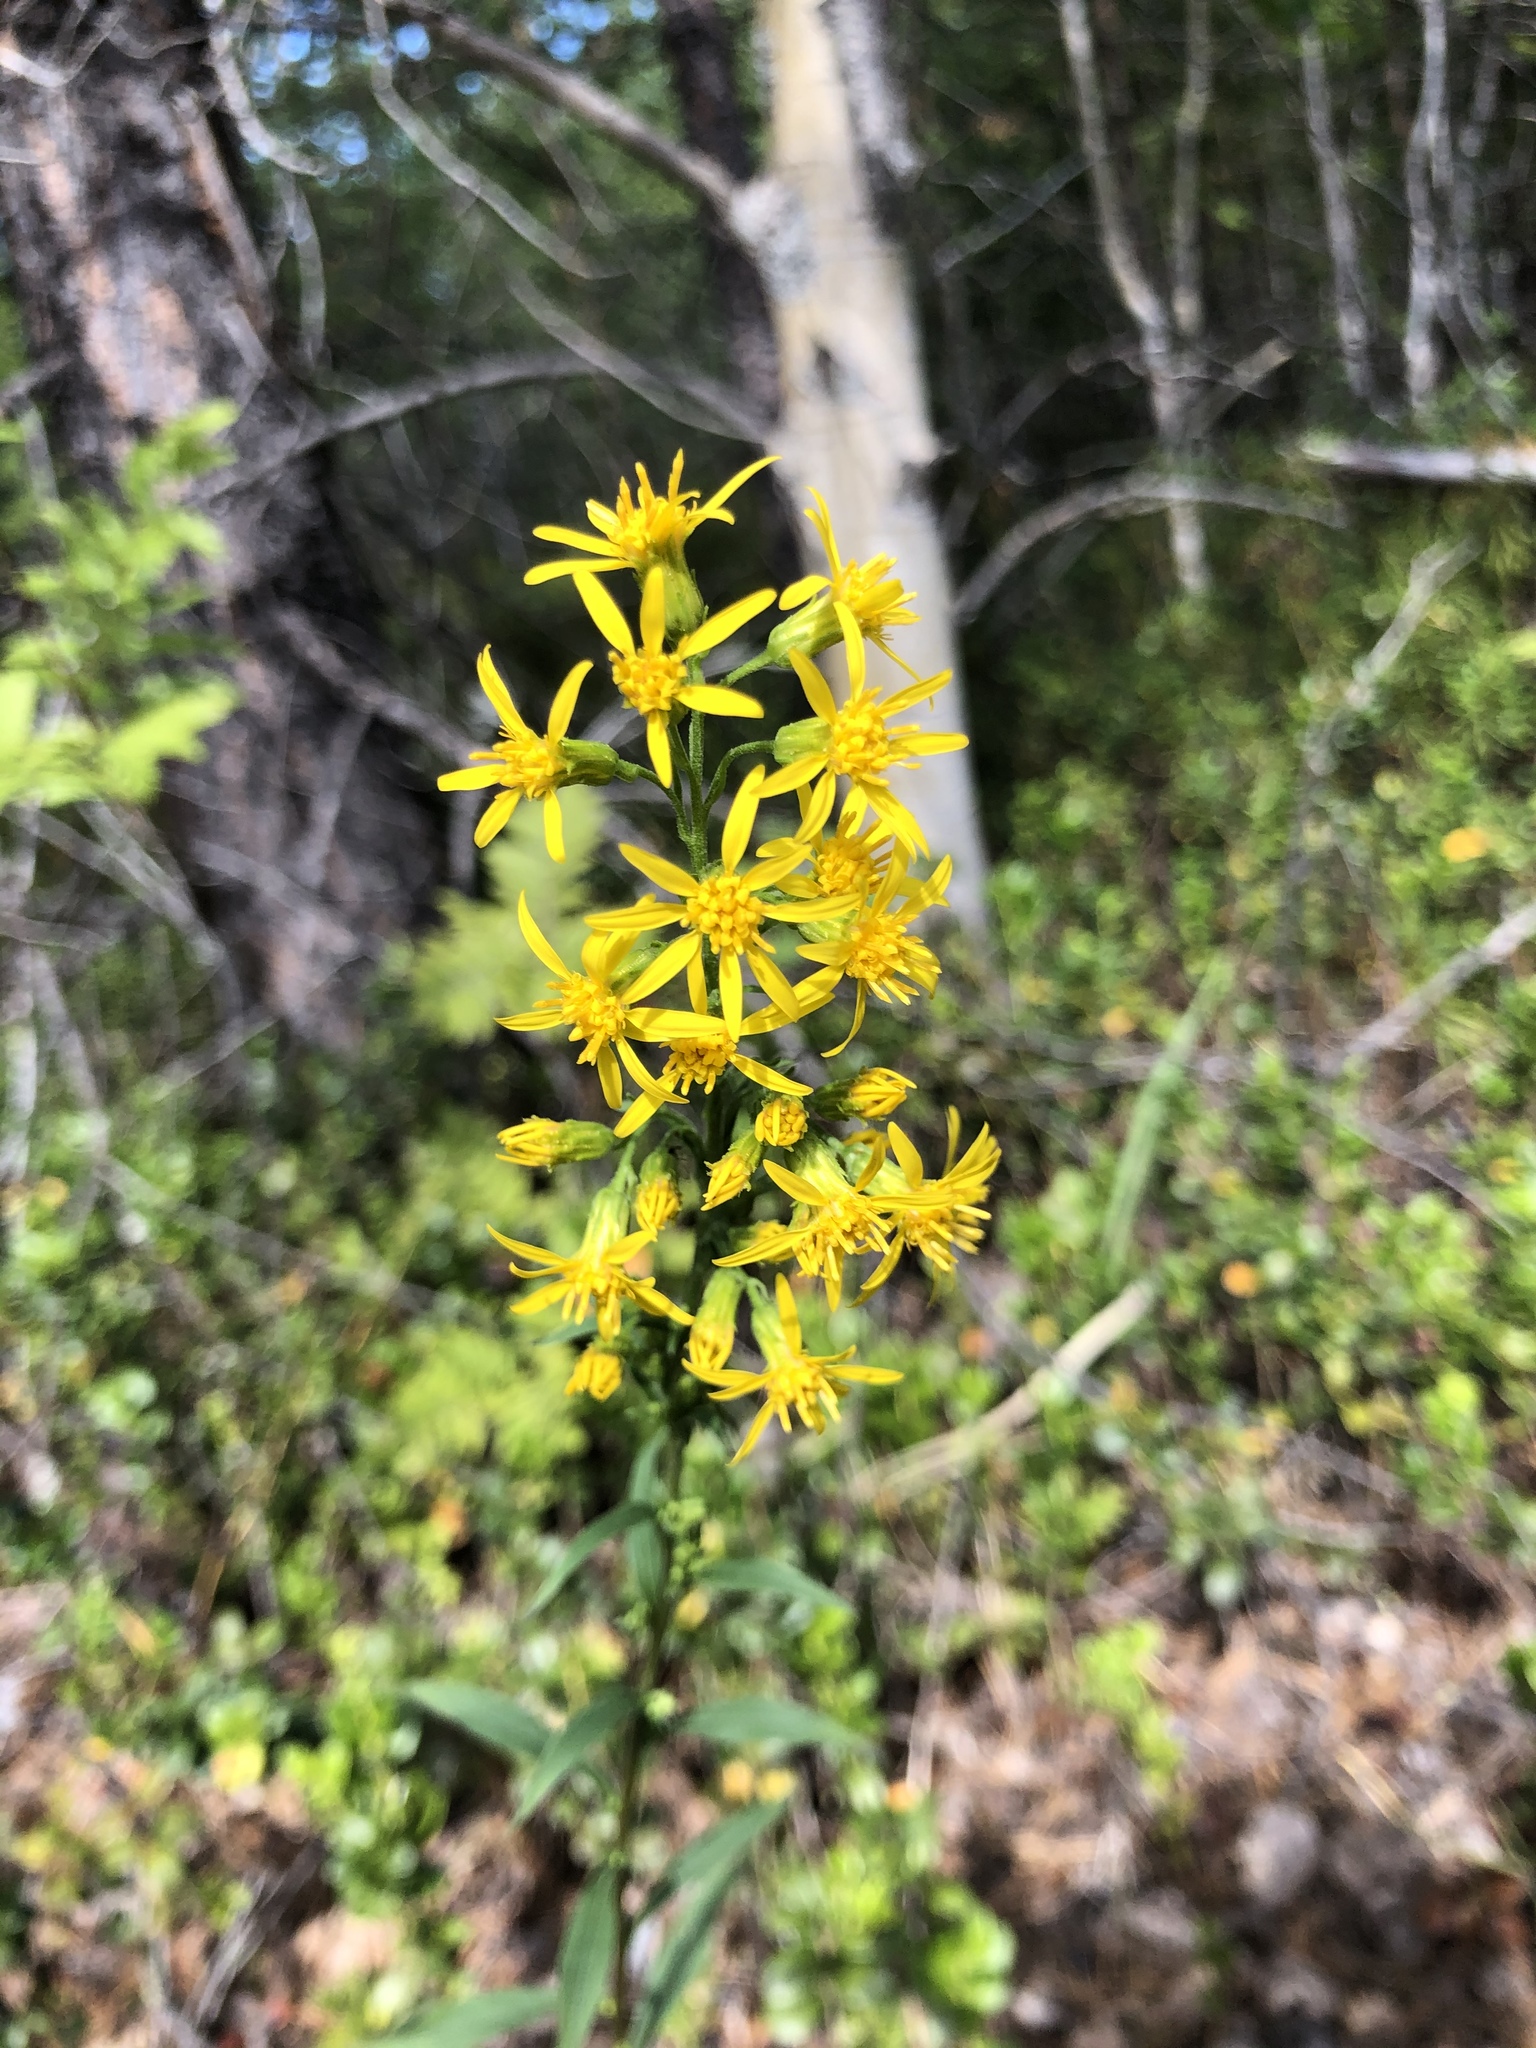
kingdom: Plantae
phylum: Tracheophyta
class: Magnoliopsida
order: Asterales
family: Asteraceae
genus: Solidago
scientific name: Solidago virgaurea
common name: Goldenrod
